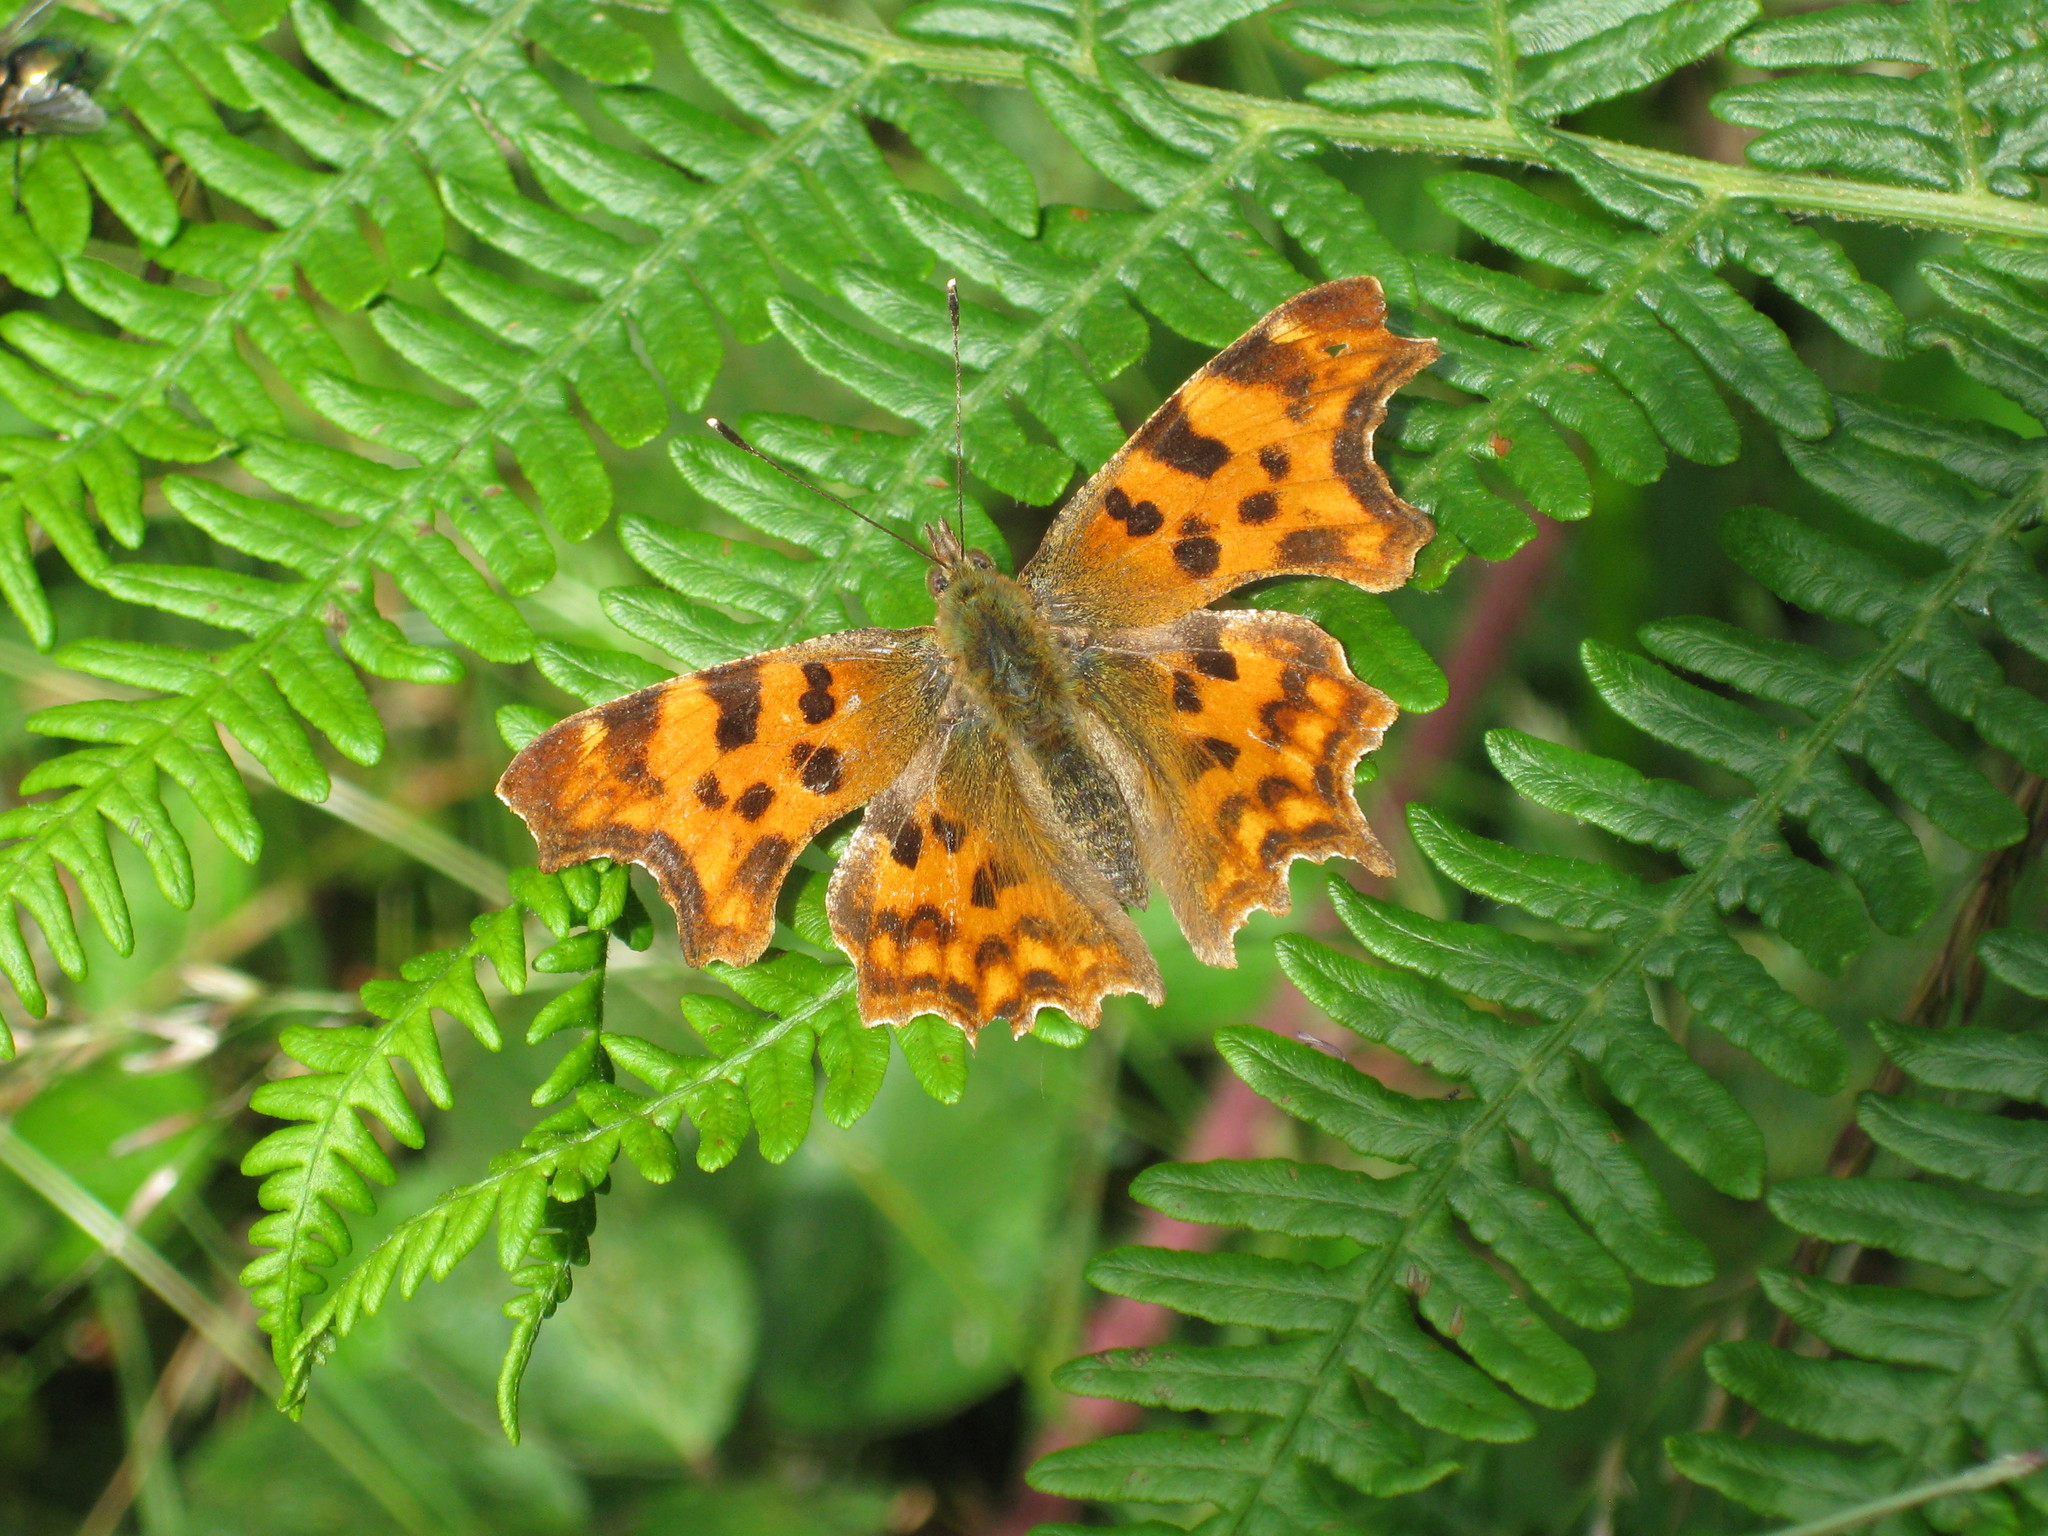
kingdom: Animalia
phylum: Arthropoda
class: Insecta
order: Lepidoptera
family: Nymphalidae
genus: Polygonia
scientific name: Polygonia c-album
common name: Comma
